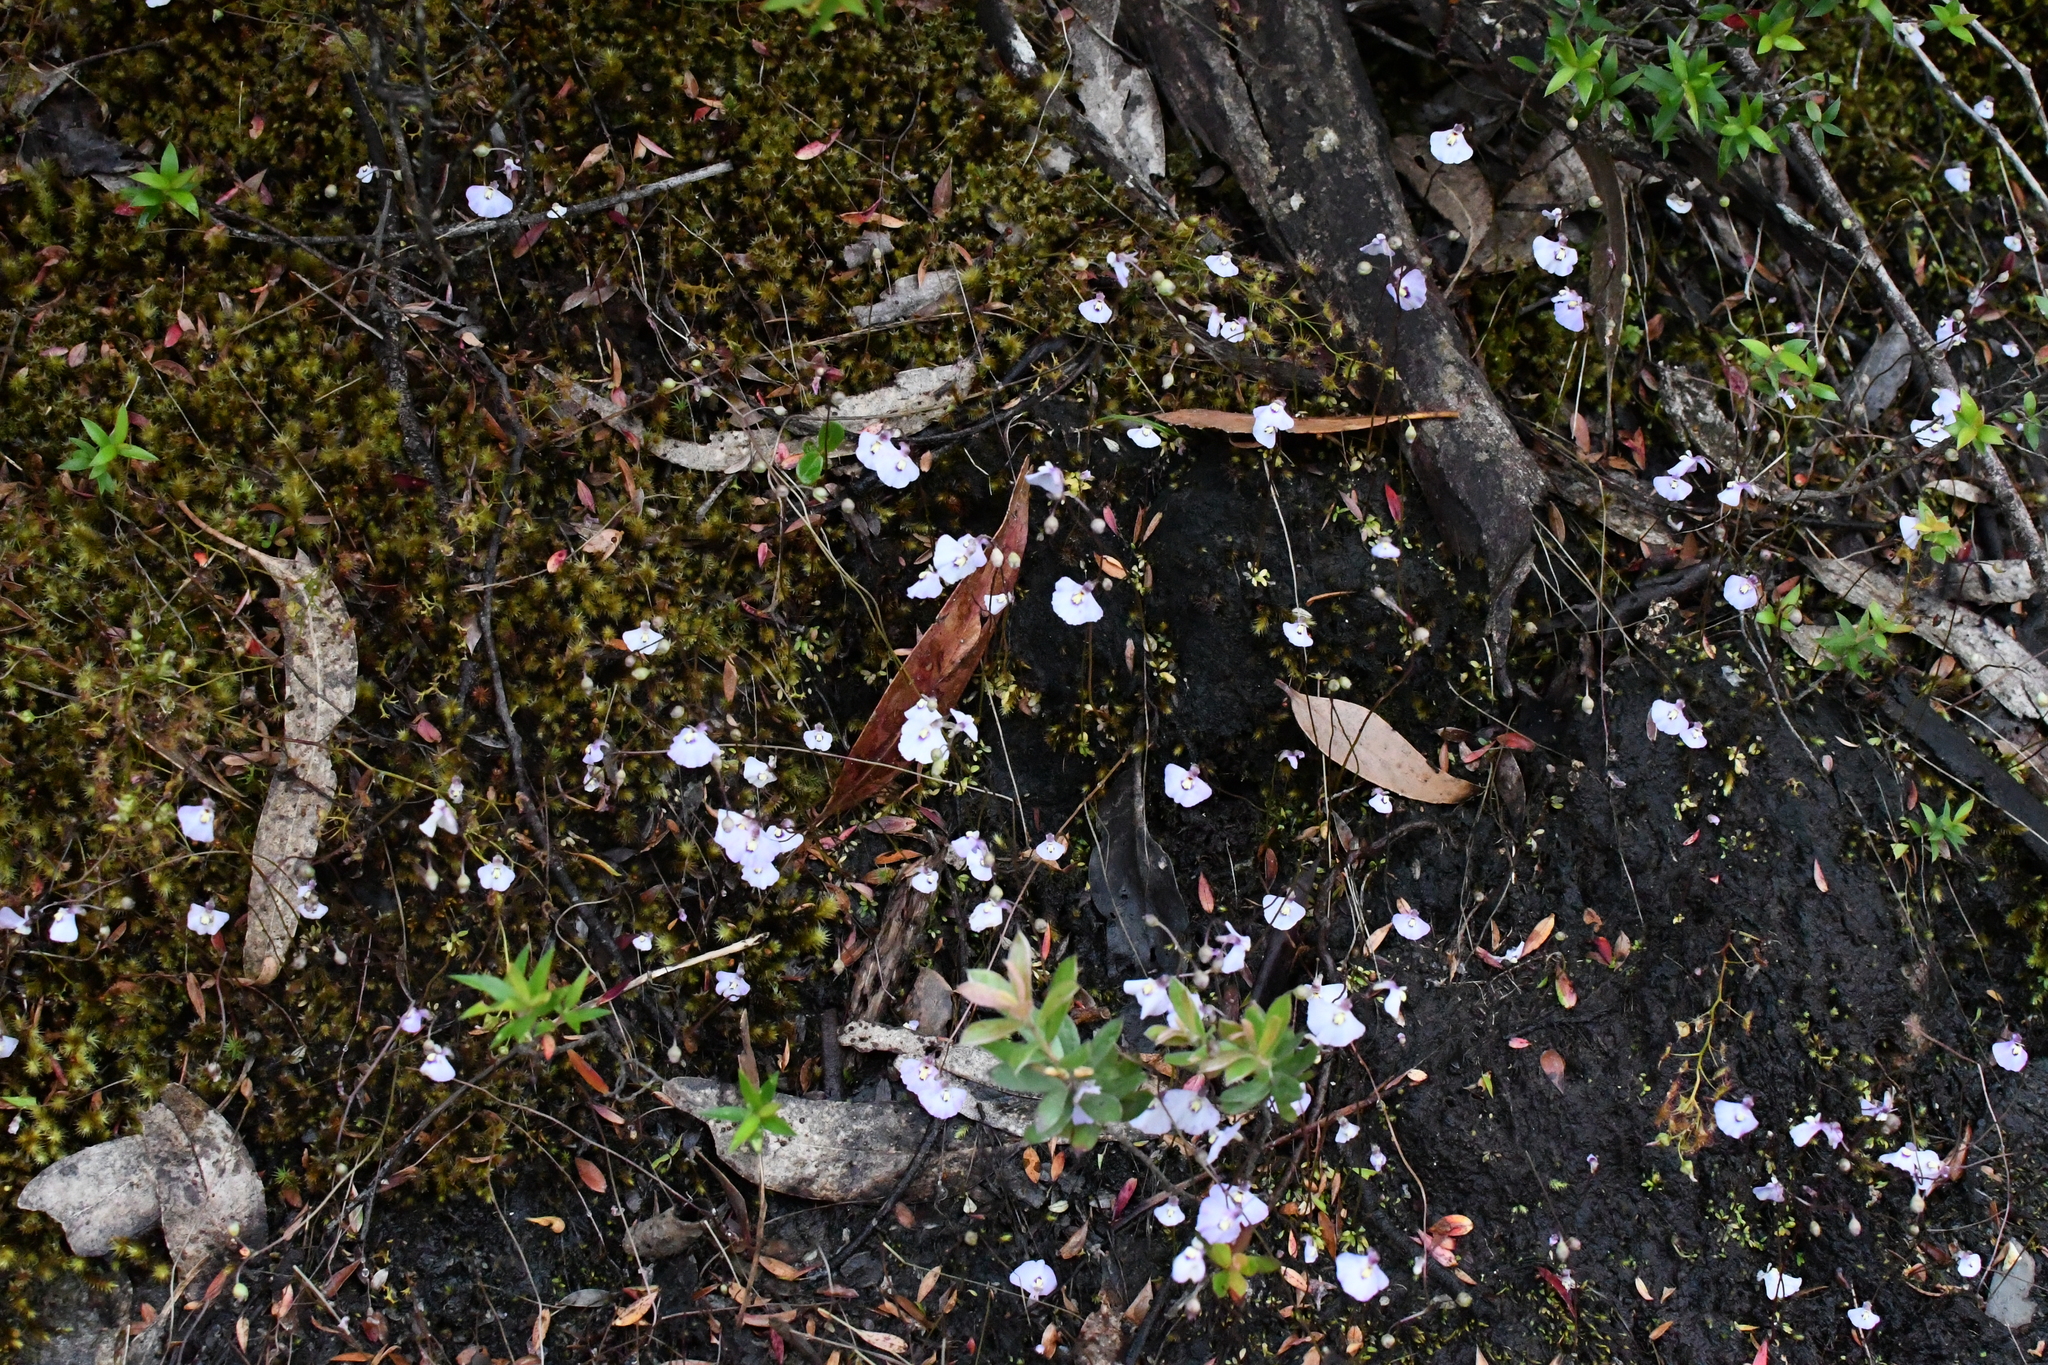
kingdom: Plantae
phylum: Tracheophyta
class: Magnoliopsida
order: Lamiales
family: Lentibulariaceae
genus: Utricularia
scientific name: Utricularia grampiana
